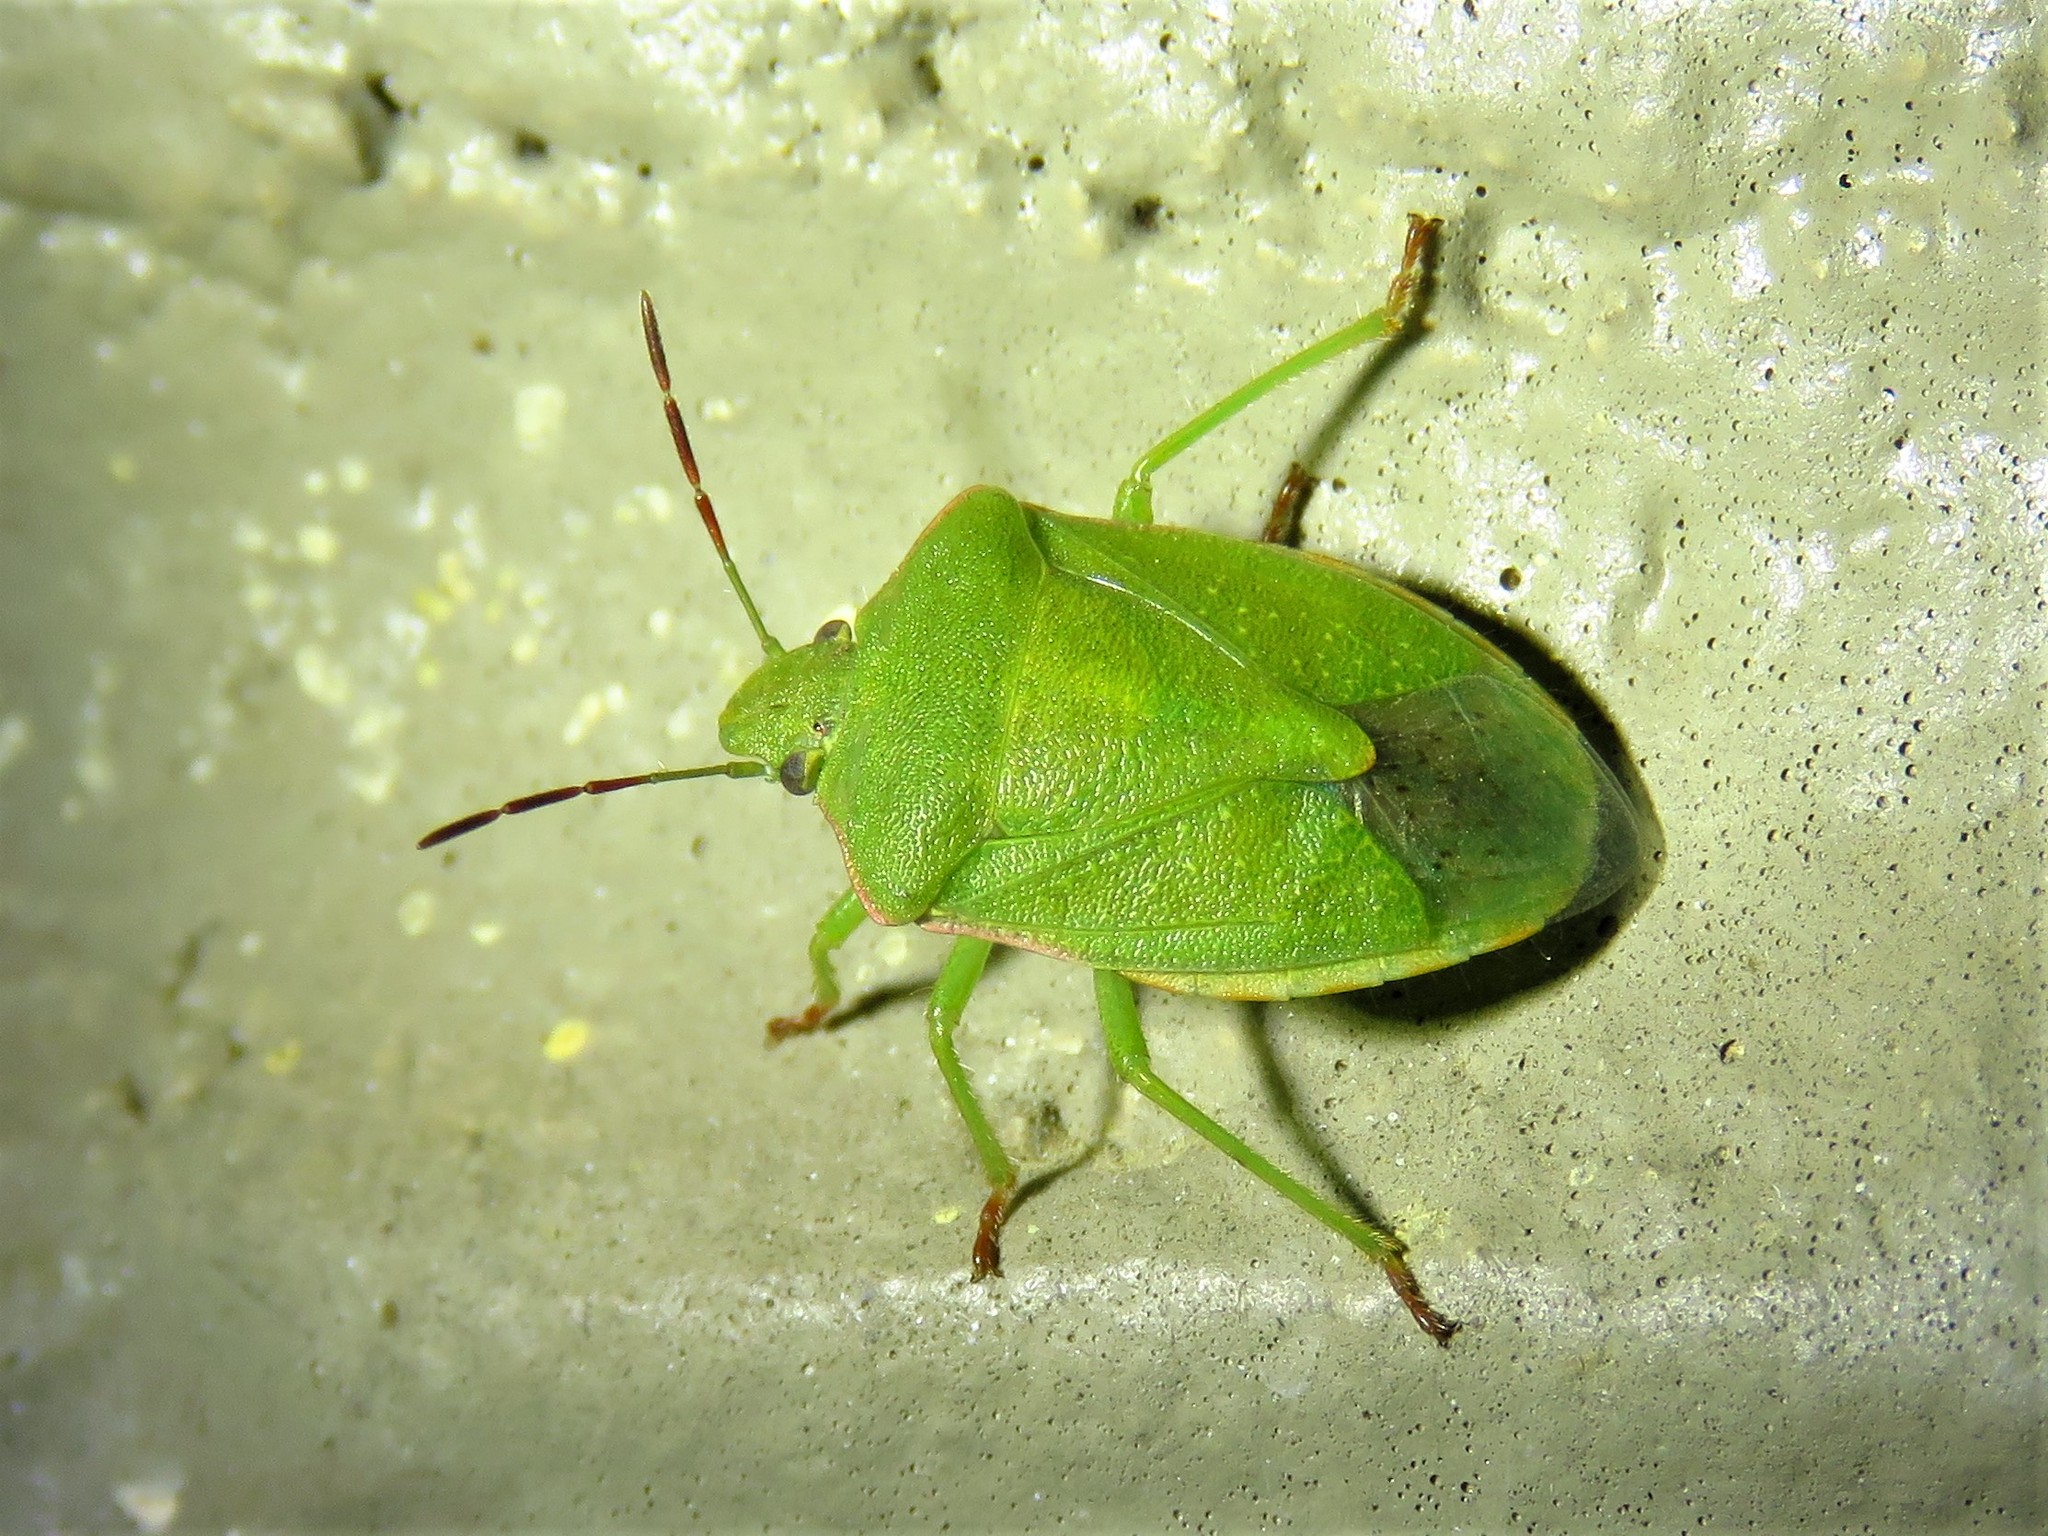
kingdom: Animalia
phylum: Arthropoda
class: Insecta
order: Hemiptera
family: Pentatomidae
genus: Thyanta
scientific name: Thyanta accerra
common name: Stink bug
